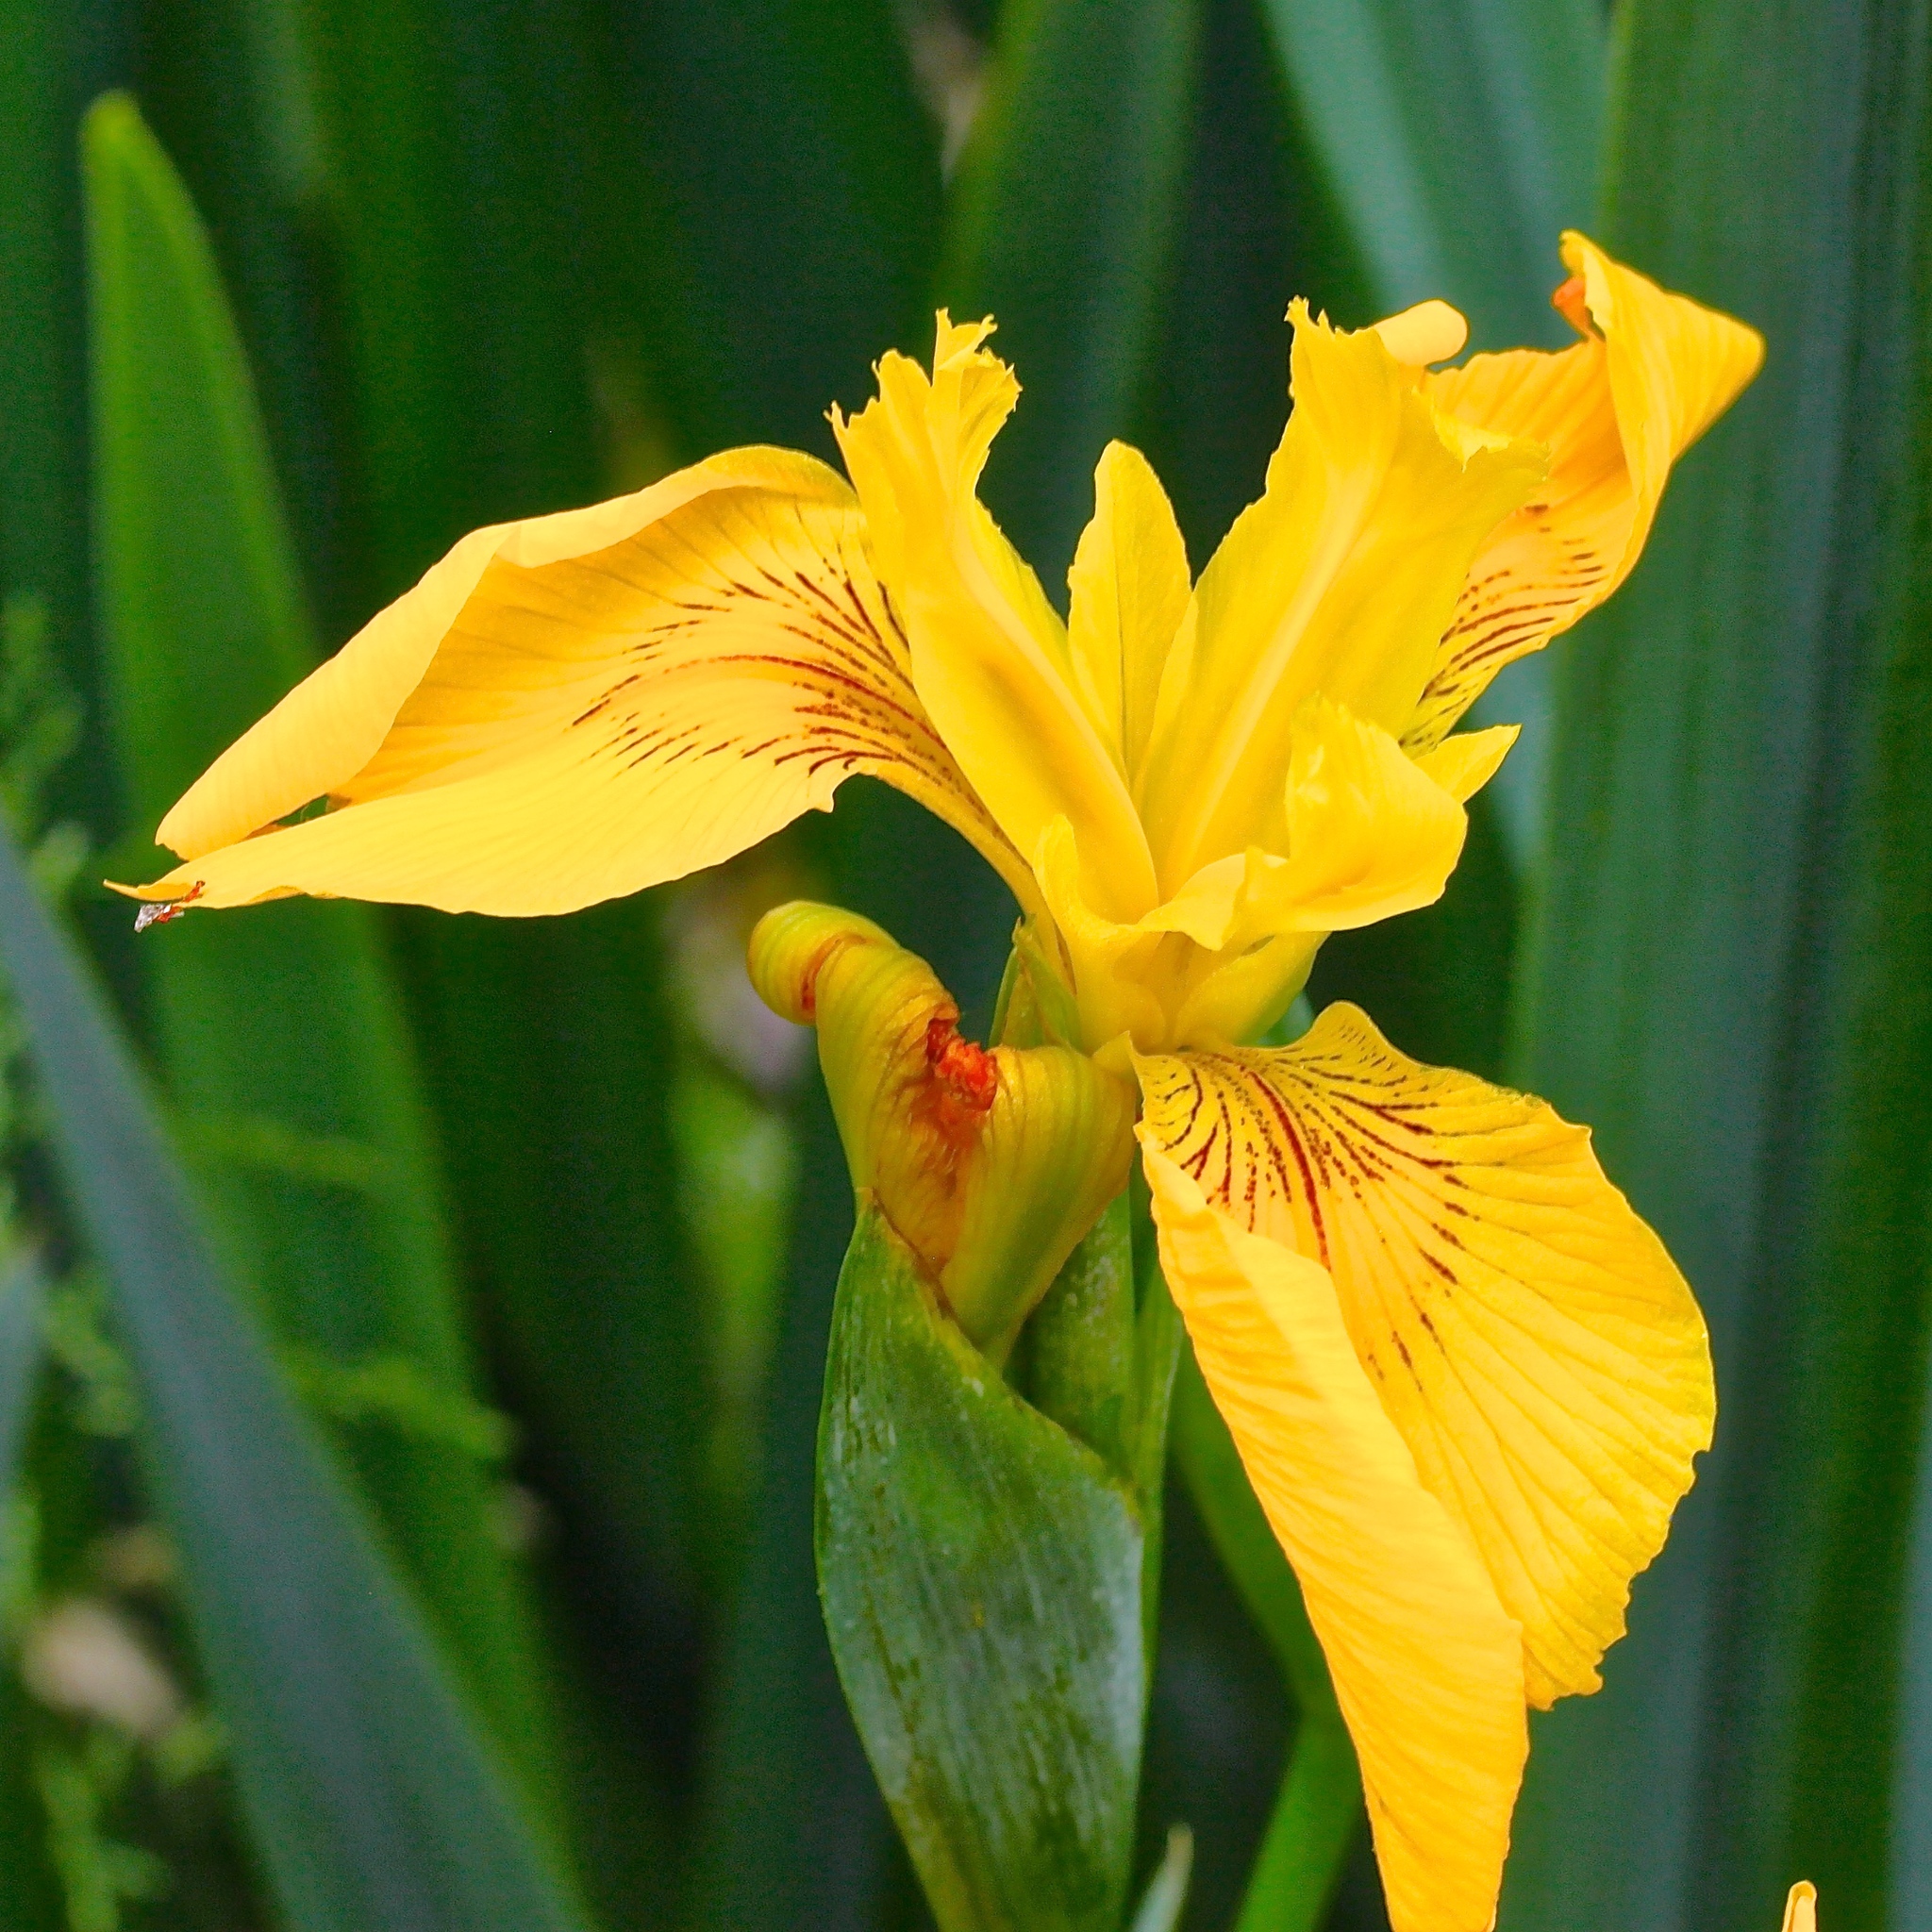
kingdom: Plantae
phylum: Tracheophyta
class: Liliopsida
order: Asparagales
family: Iridaceae
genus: Iris
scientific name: Iris pseudacorus
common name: Yellow flag
